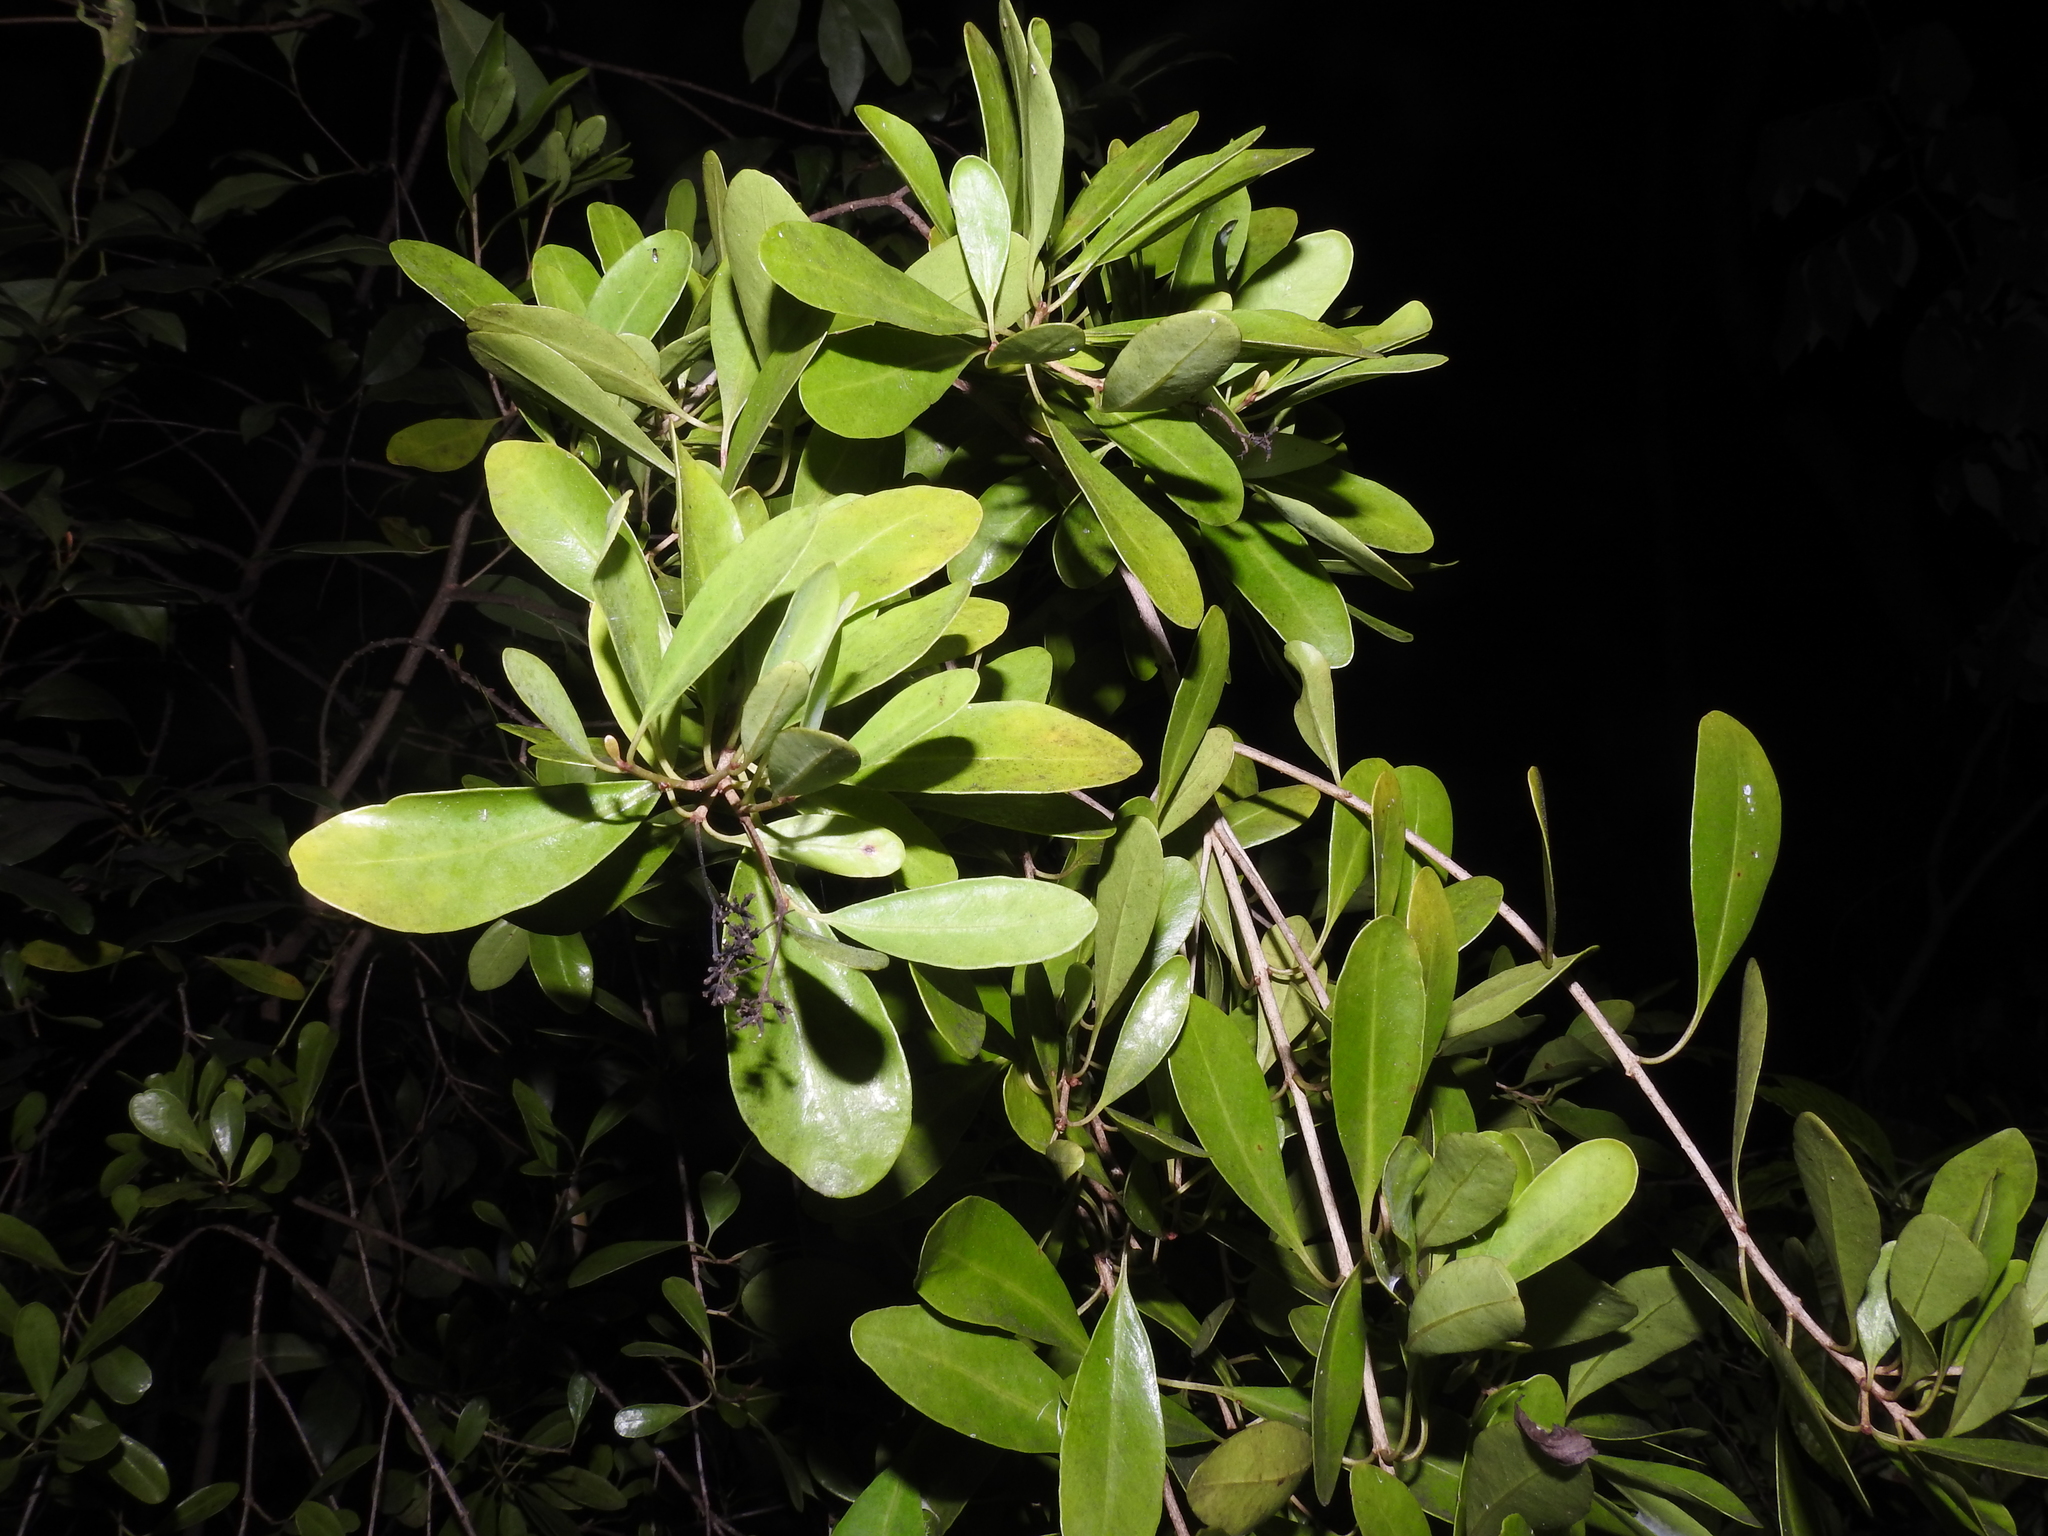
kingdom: Plantae
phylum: Tracheophyta
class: Magnoliopsida
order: Caryophyllales
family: Nyctaginaceae
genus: Guapira
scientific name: Guapira discolor
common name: Beeftree
